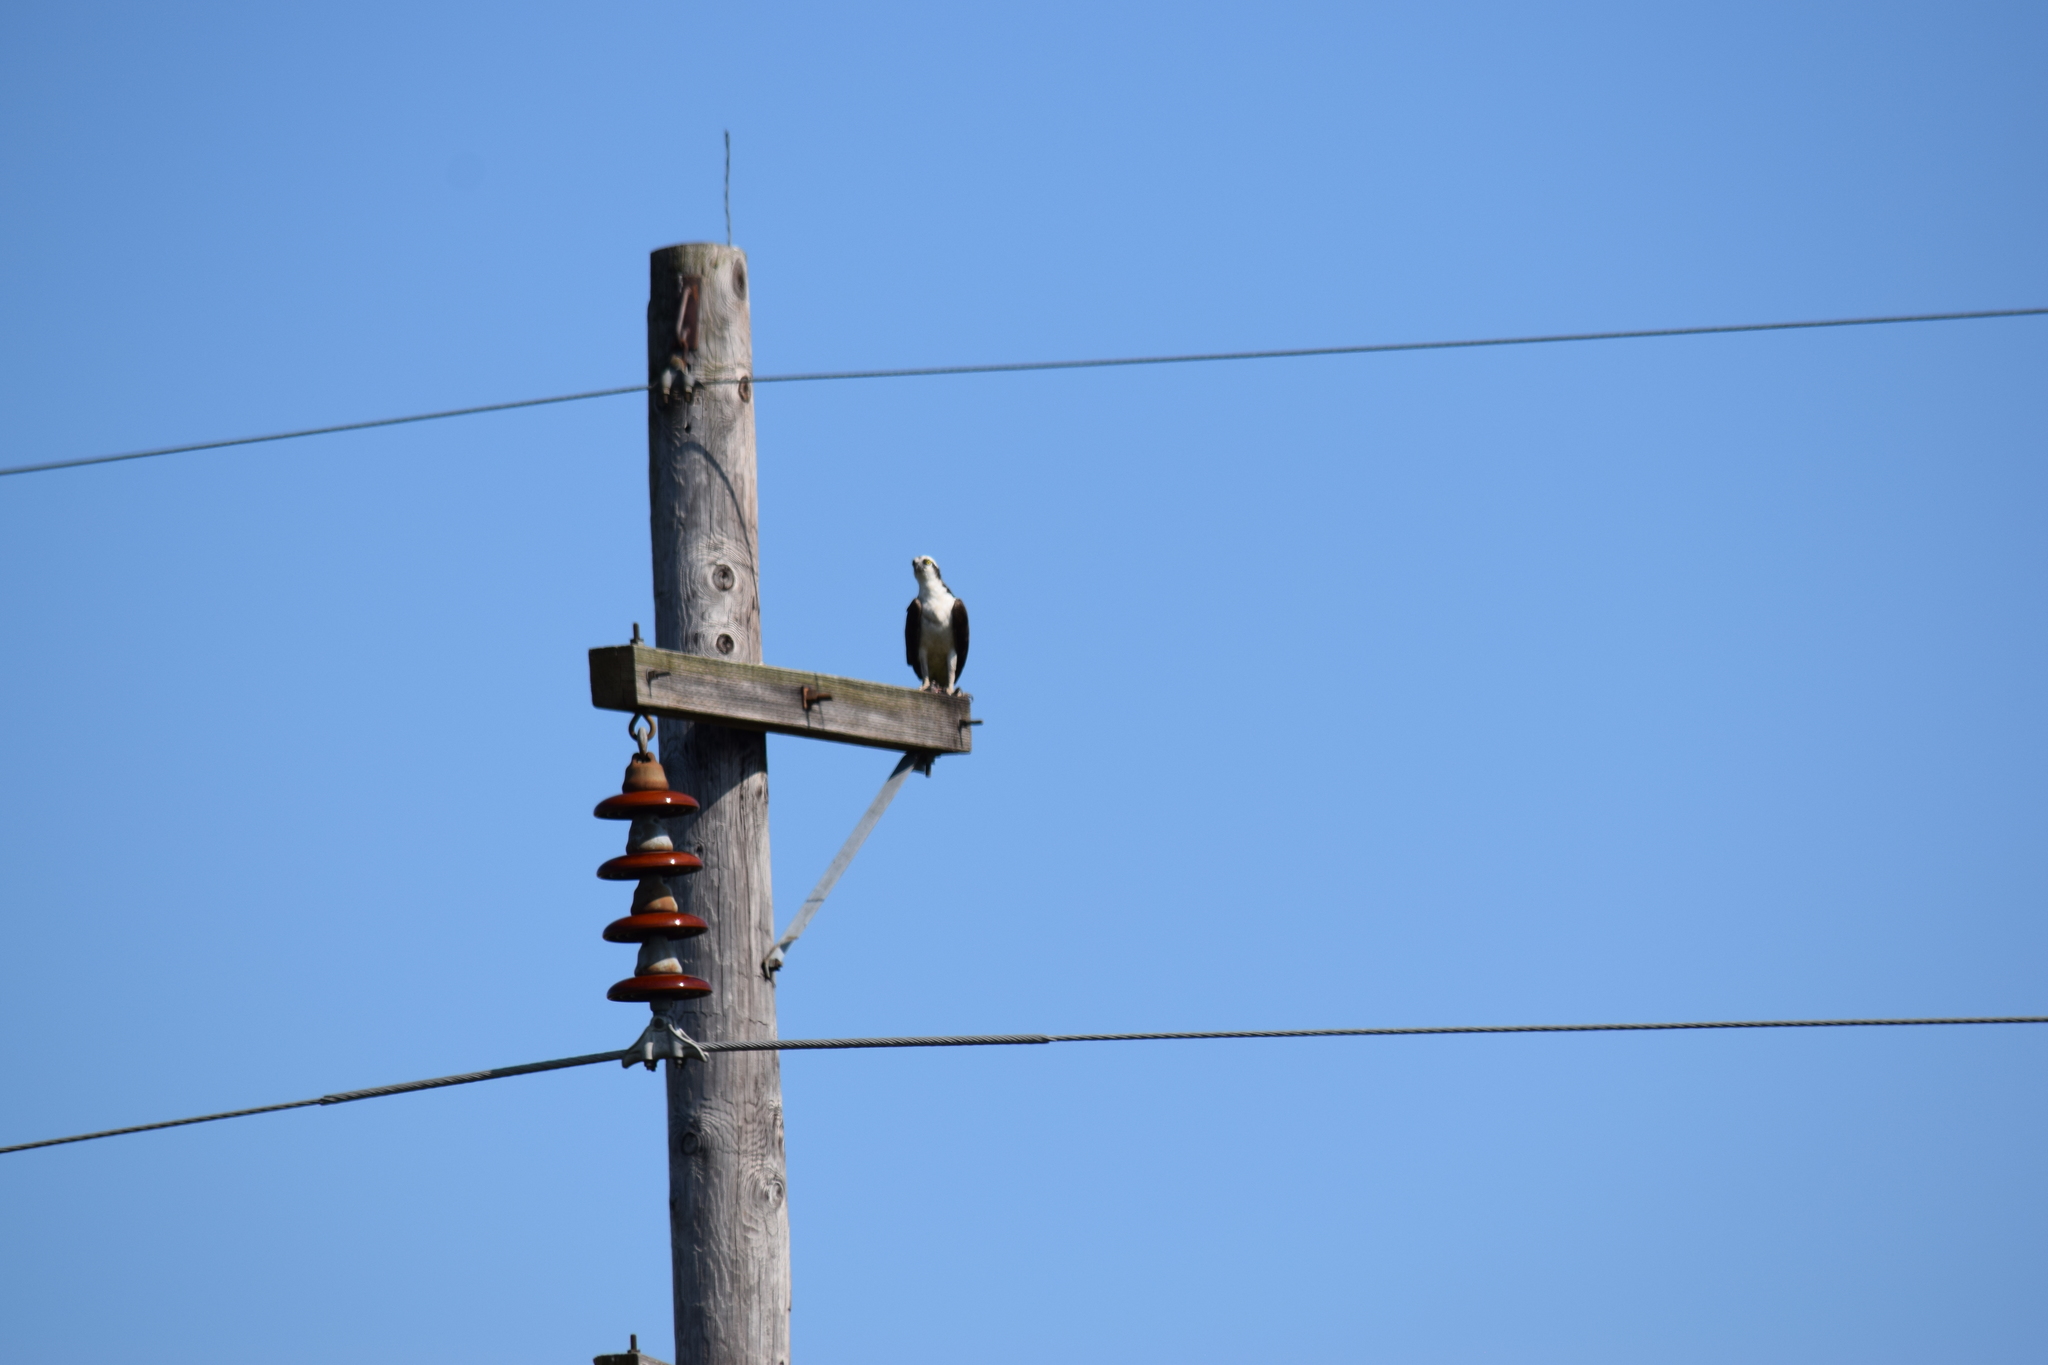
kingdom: Animalia
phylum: Chordata
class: Aves
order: Accipitriformes
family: Pandionidae
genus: Pandion
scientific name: Pandion haliaetus
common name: Osprey
